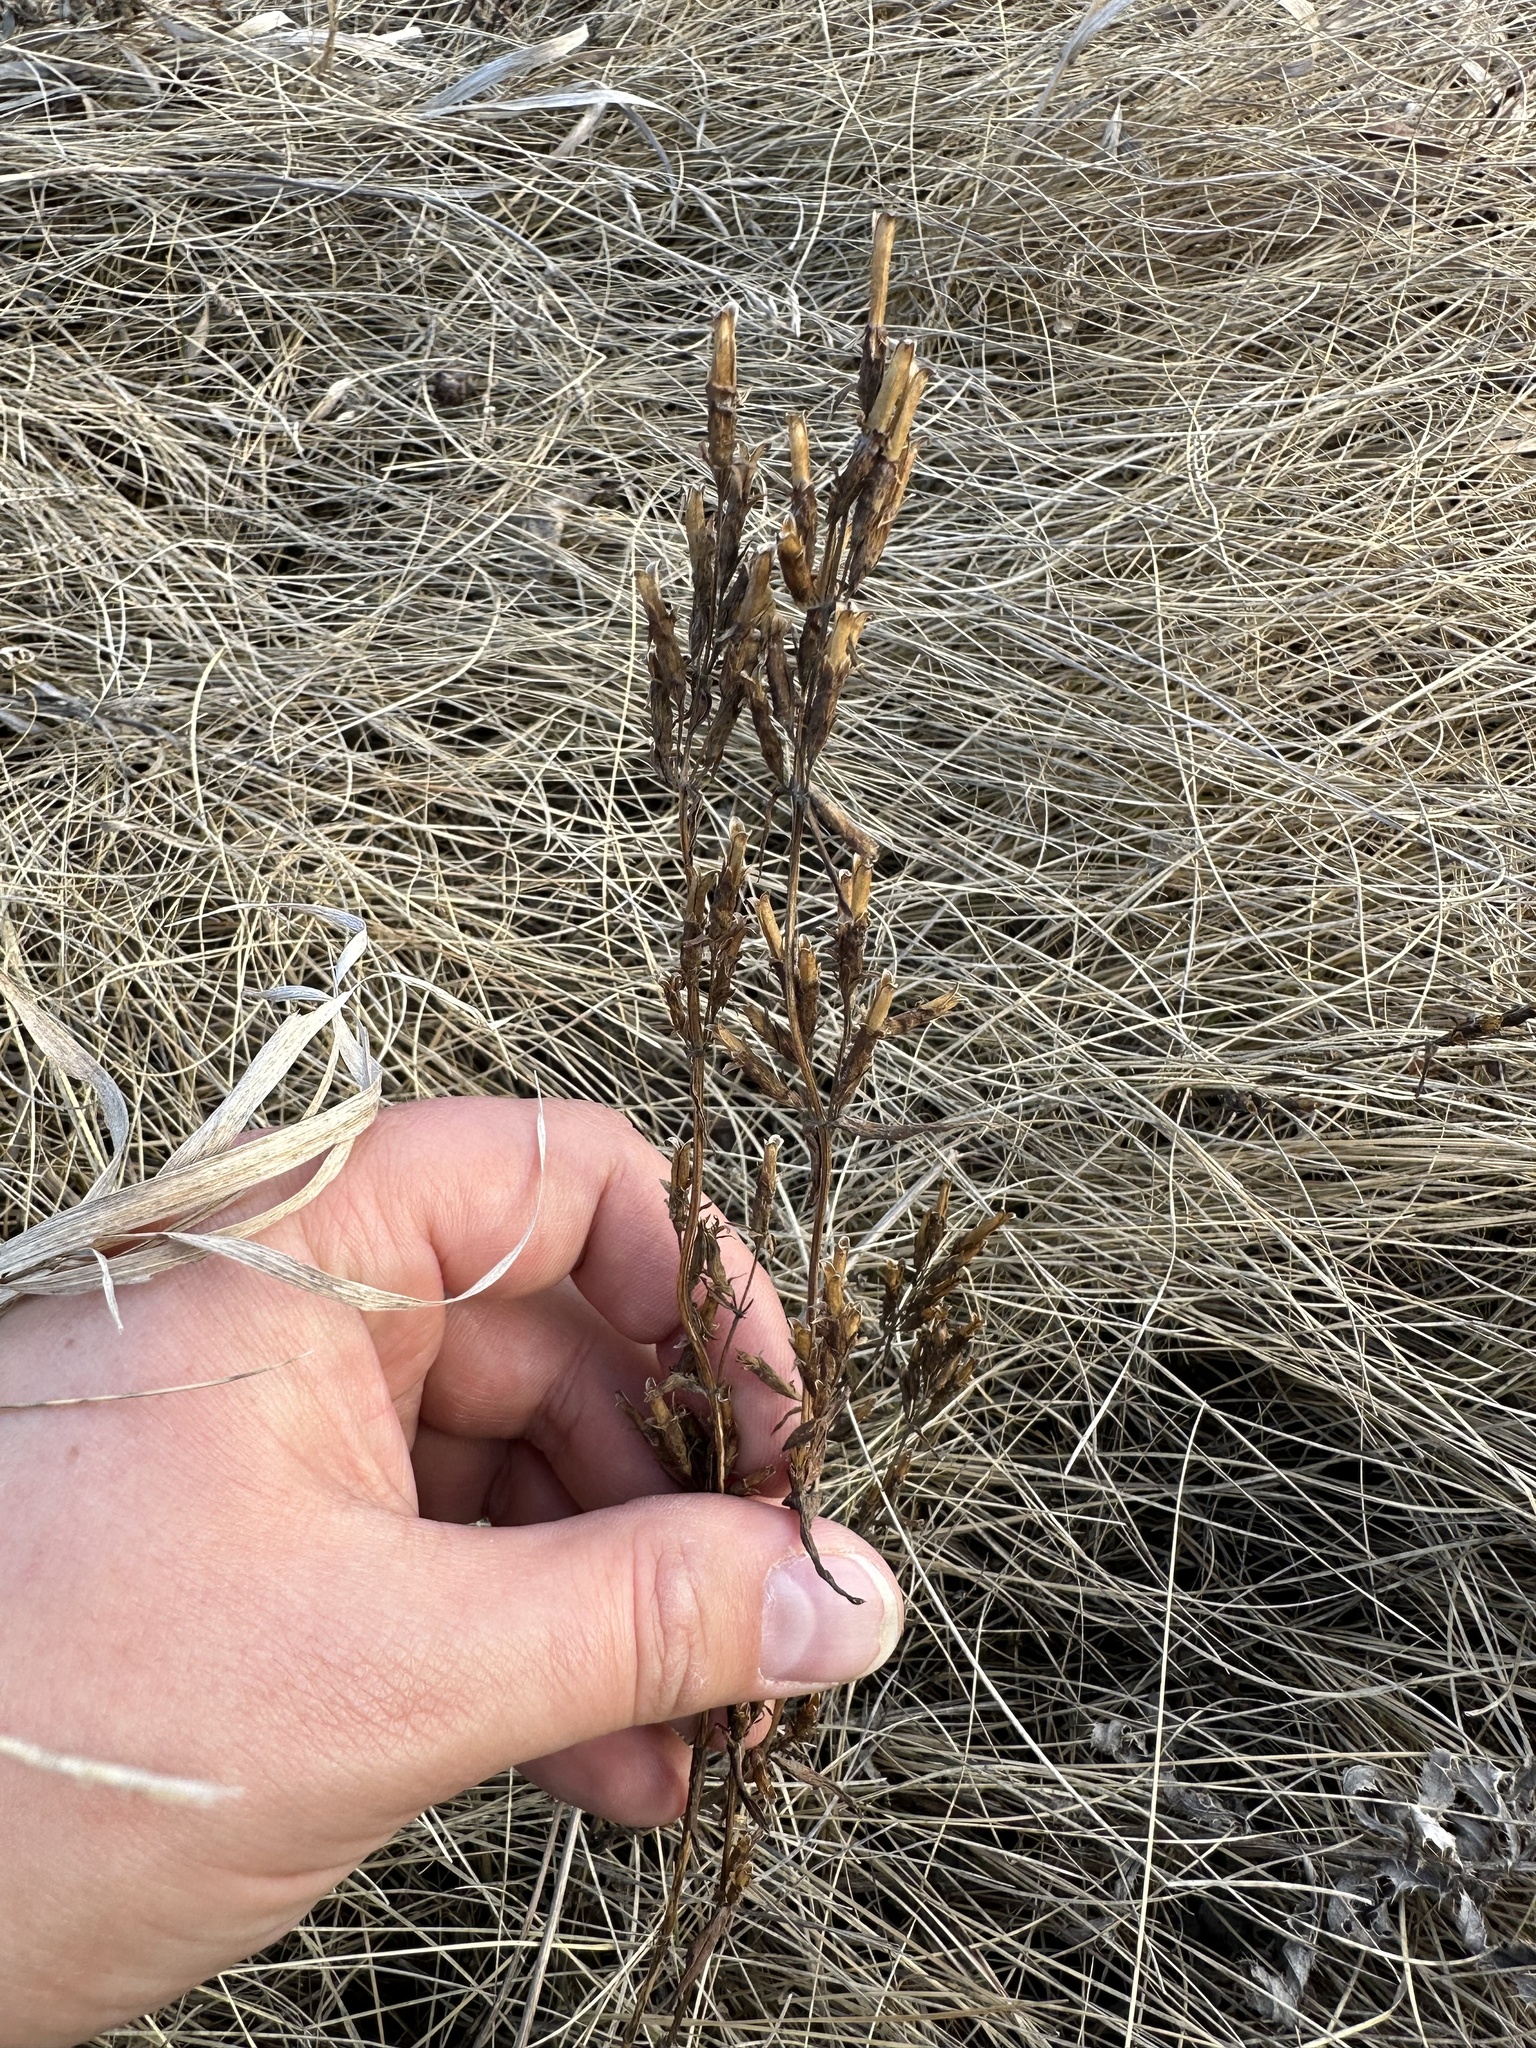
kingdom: Plantae
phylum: Tracheophyta
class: Magnoliopsida
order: Gentianales
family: Gentianaceae
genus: Gentianella
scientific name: Gentianella amarella
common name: Autumn gentian
